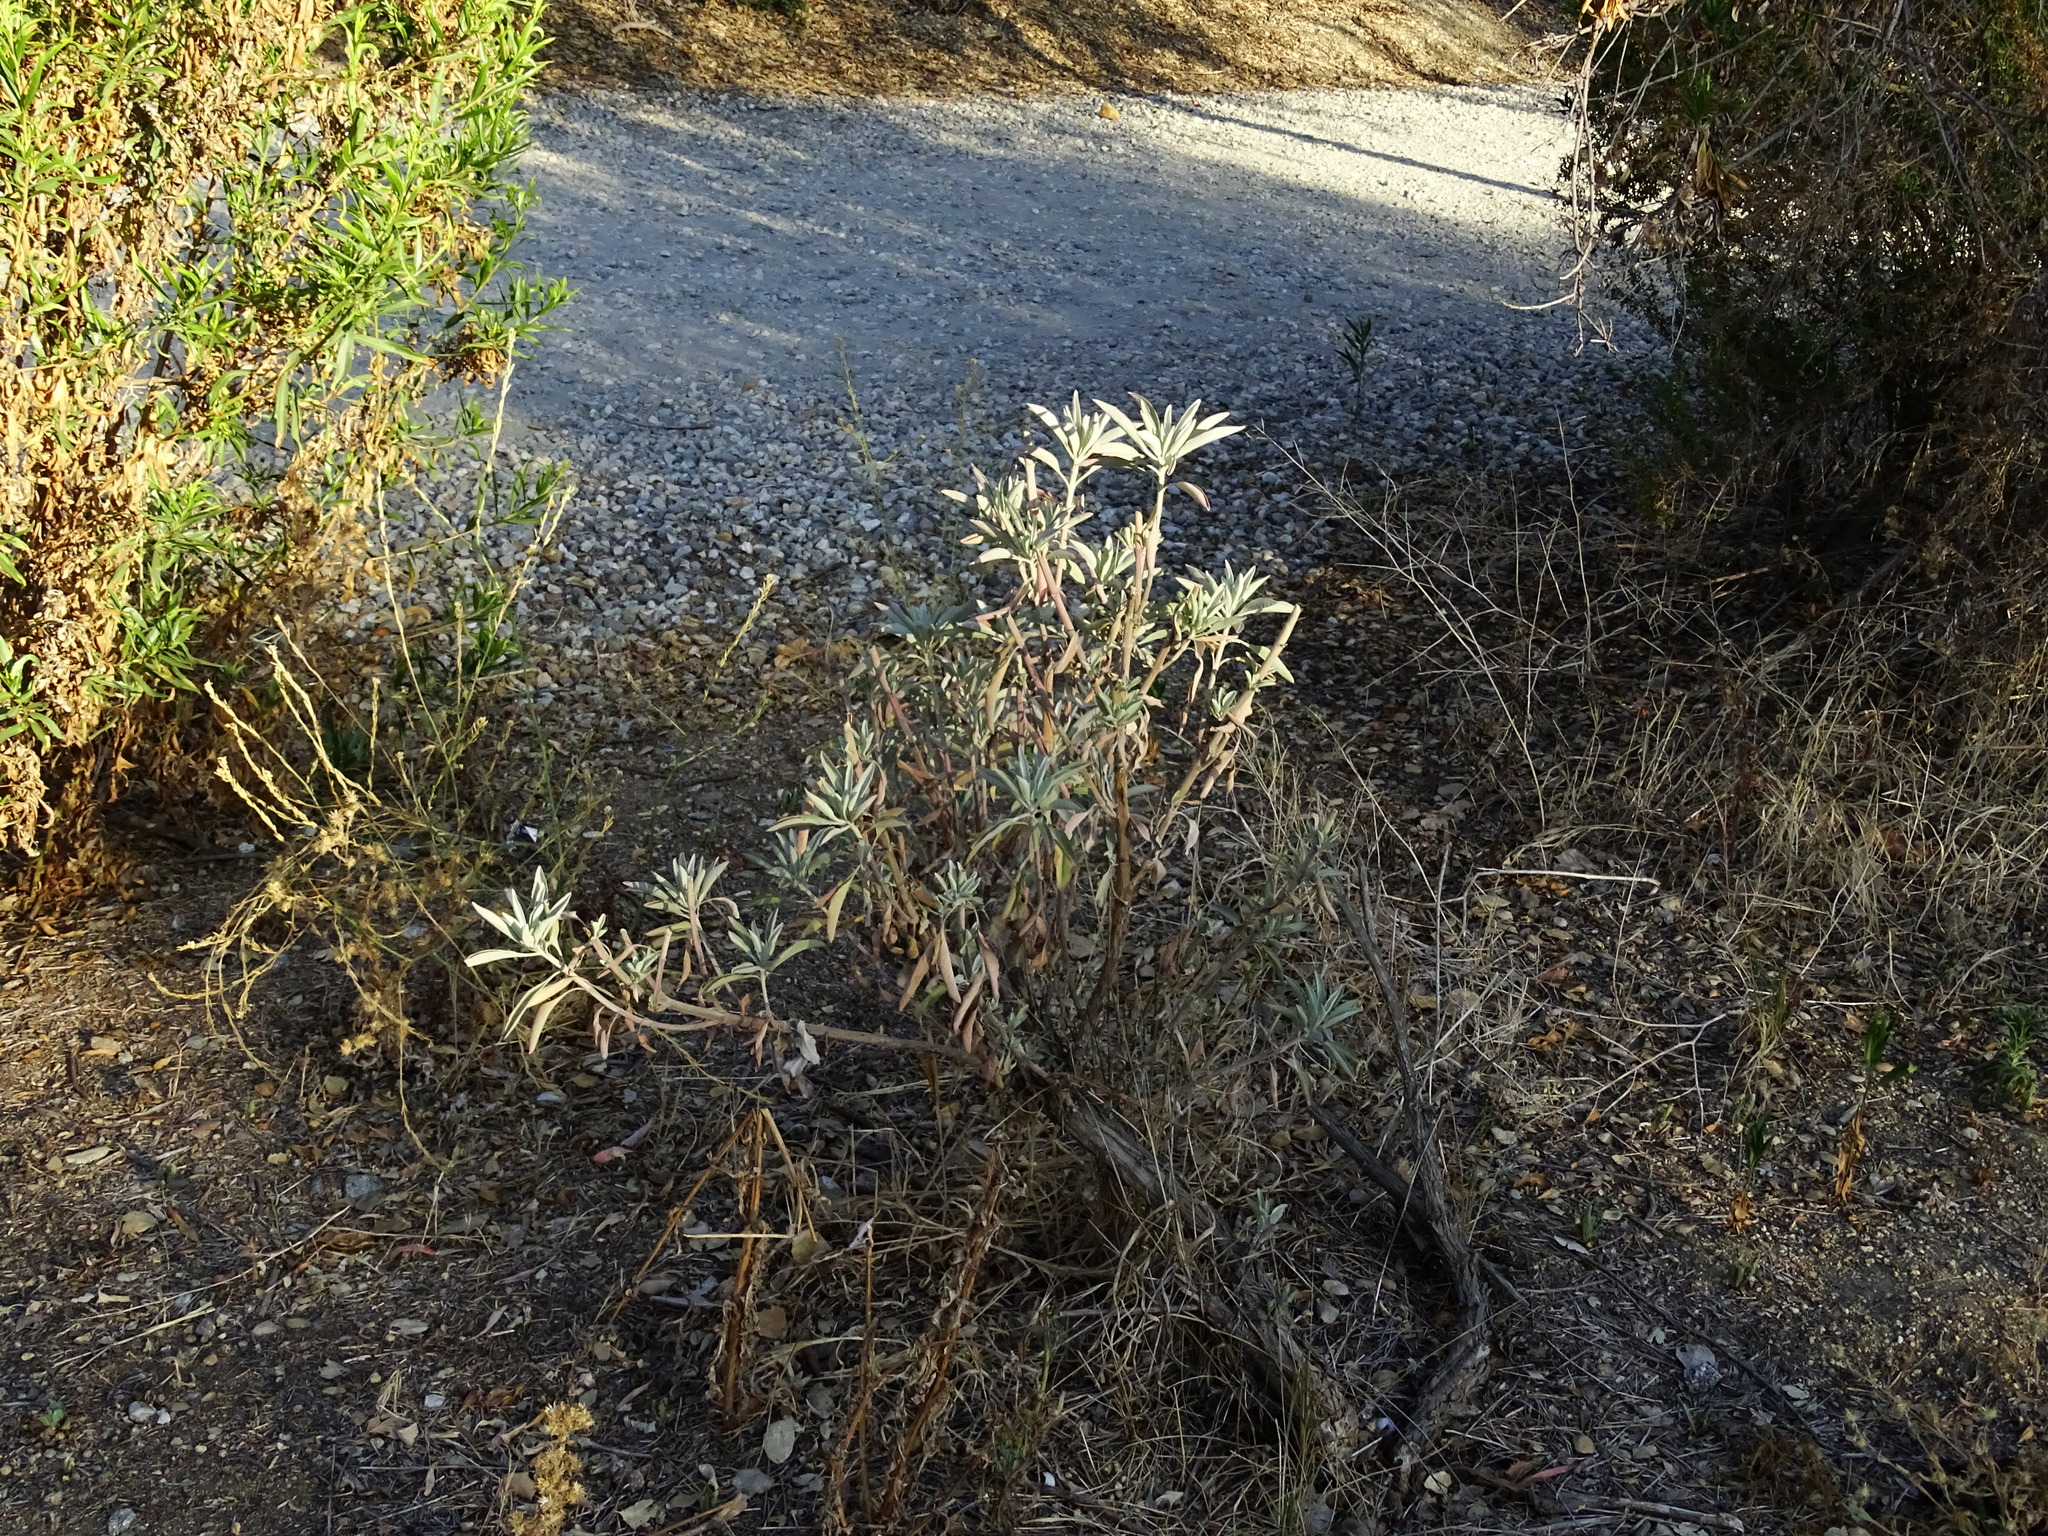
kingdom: Plantae
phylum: Tracheophyta
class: Magnoliopsida
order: Lamiales
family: Lamiaceae
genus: Salvia
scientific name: Salvia apiana
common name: White sage
